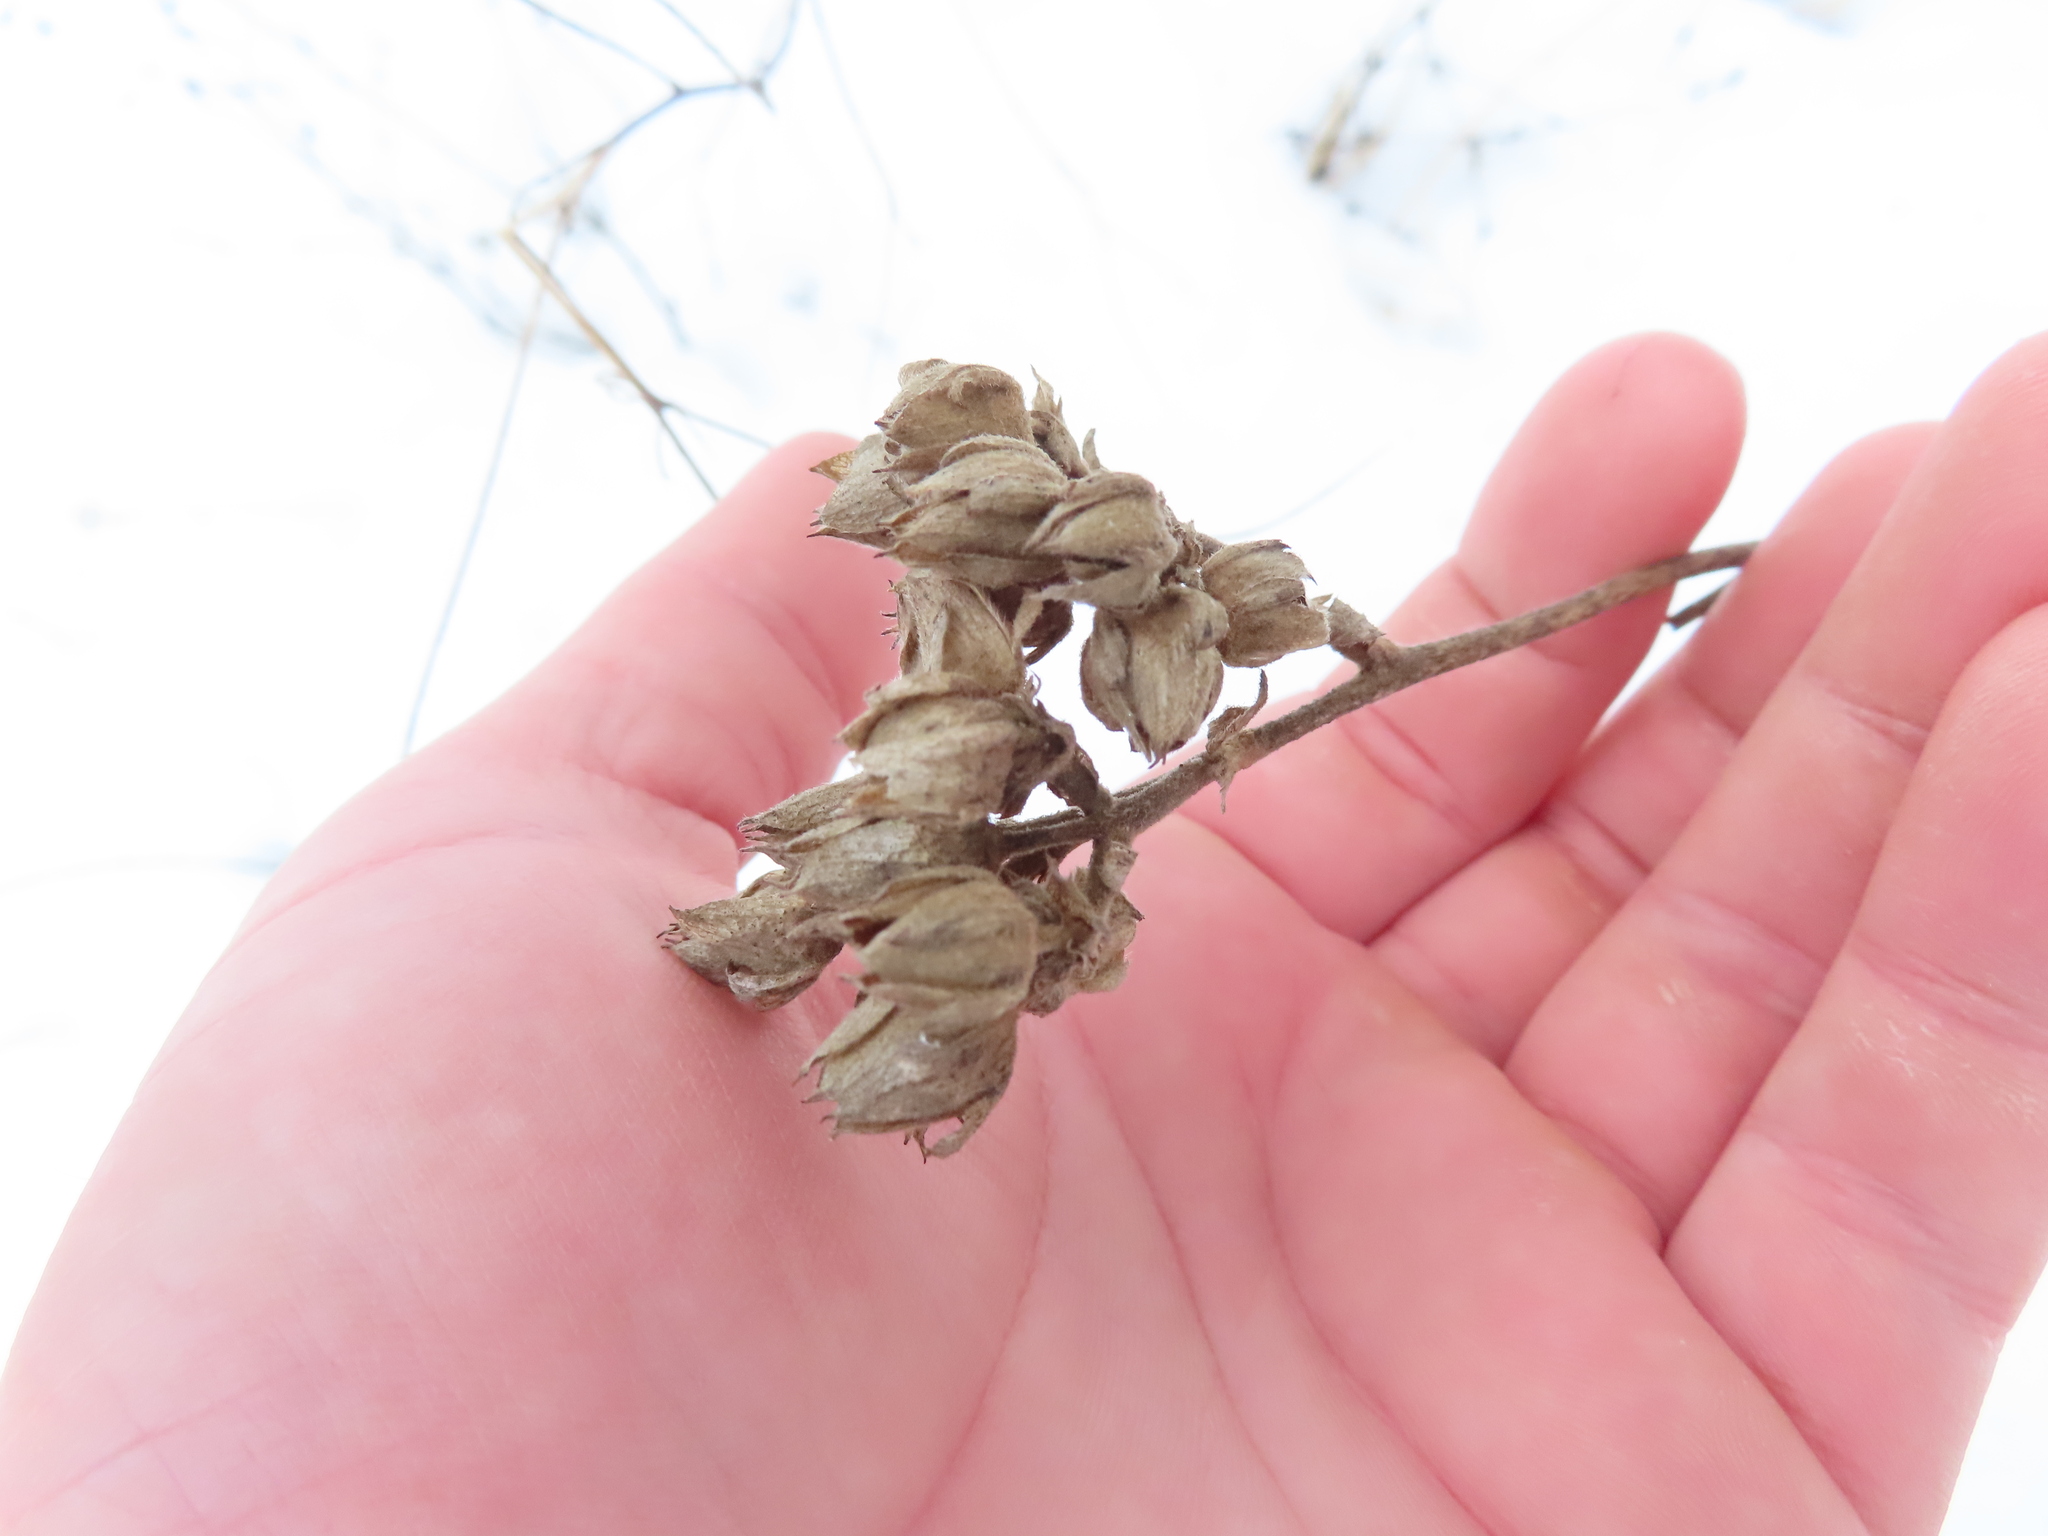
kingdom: Plantae
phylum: Tracheophyta
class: Magnoliopsida
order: Rosales
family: Rosaceae
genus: Drymocallis
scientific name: Drymocallis arguta
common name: Tall cinquefoil
